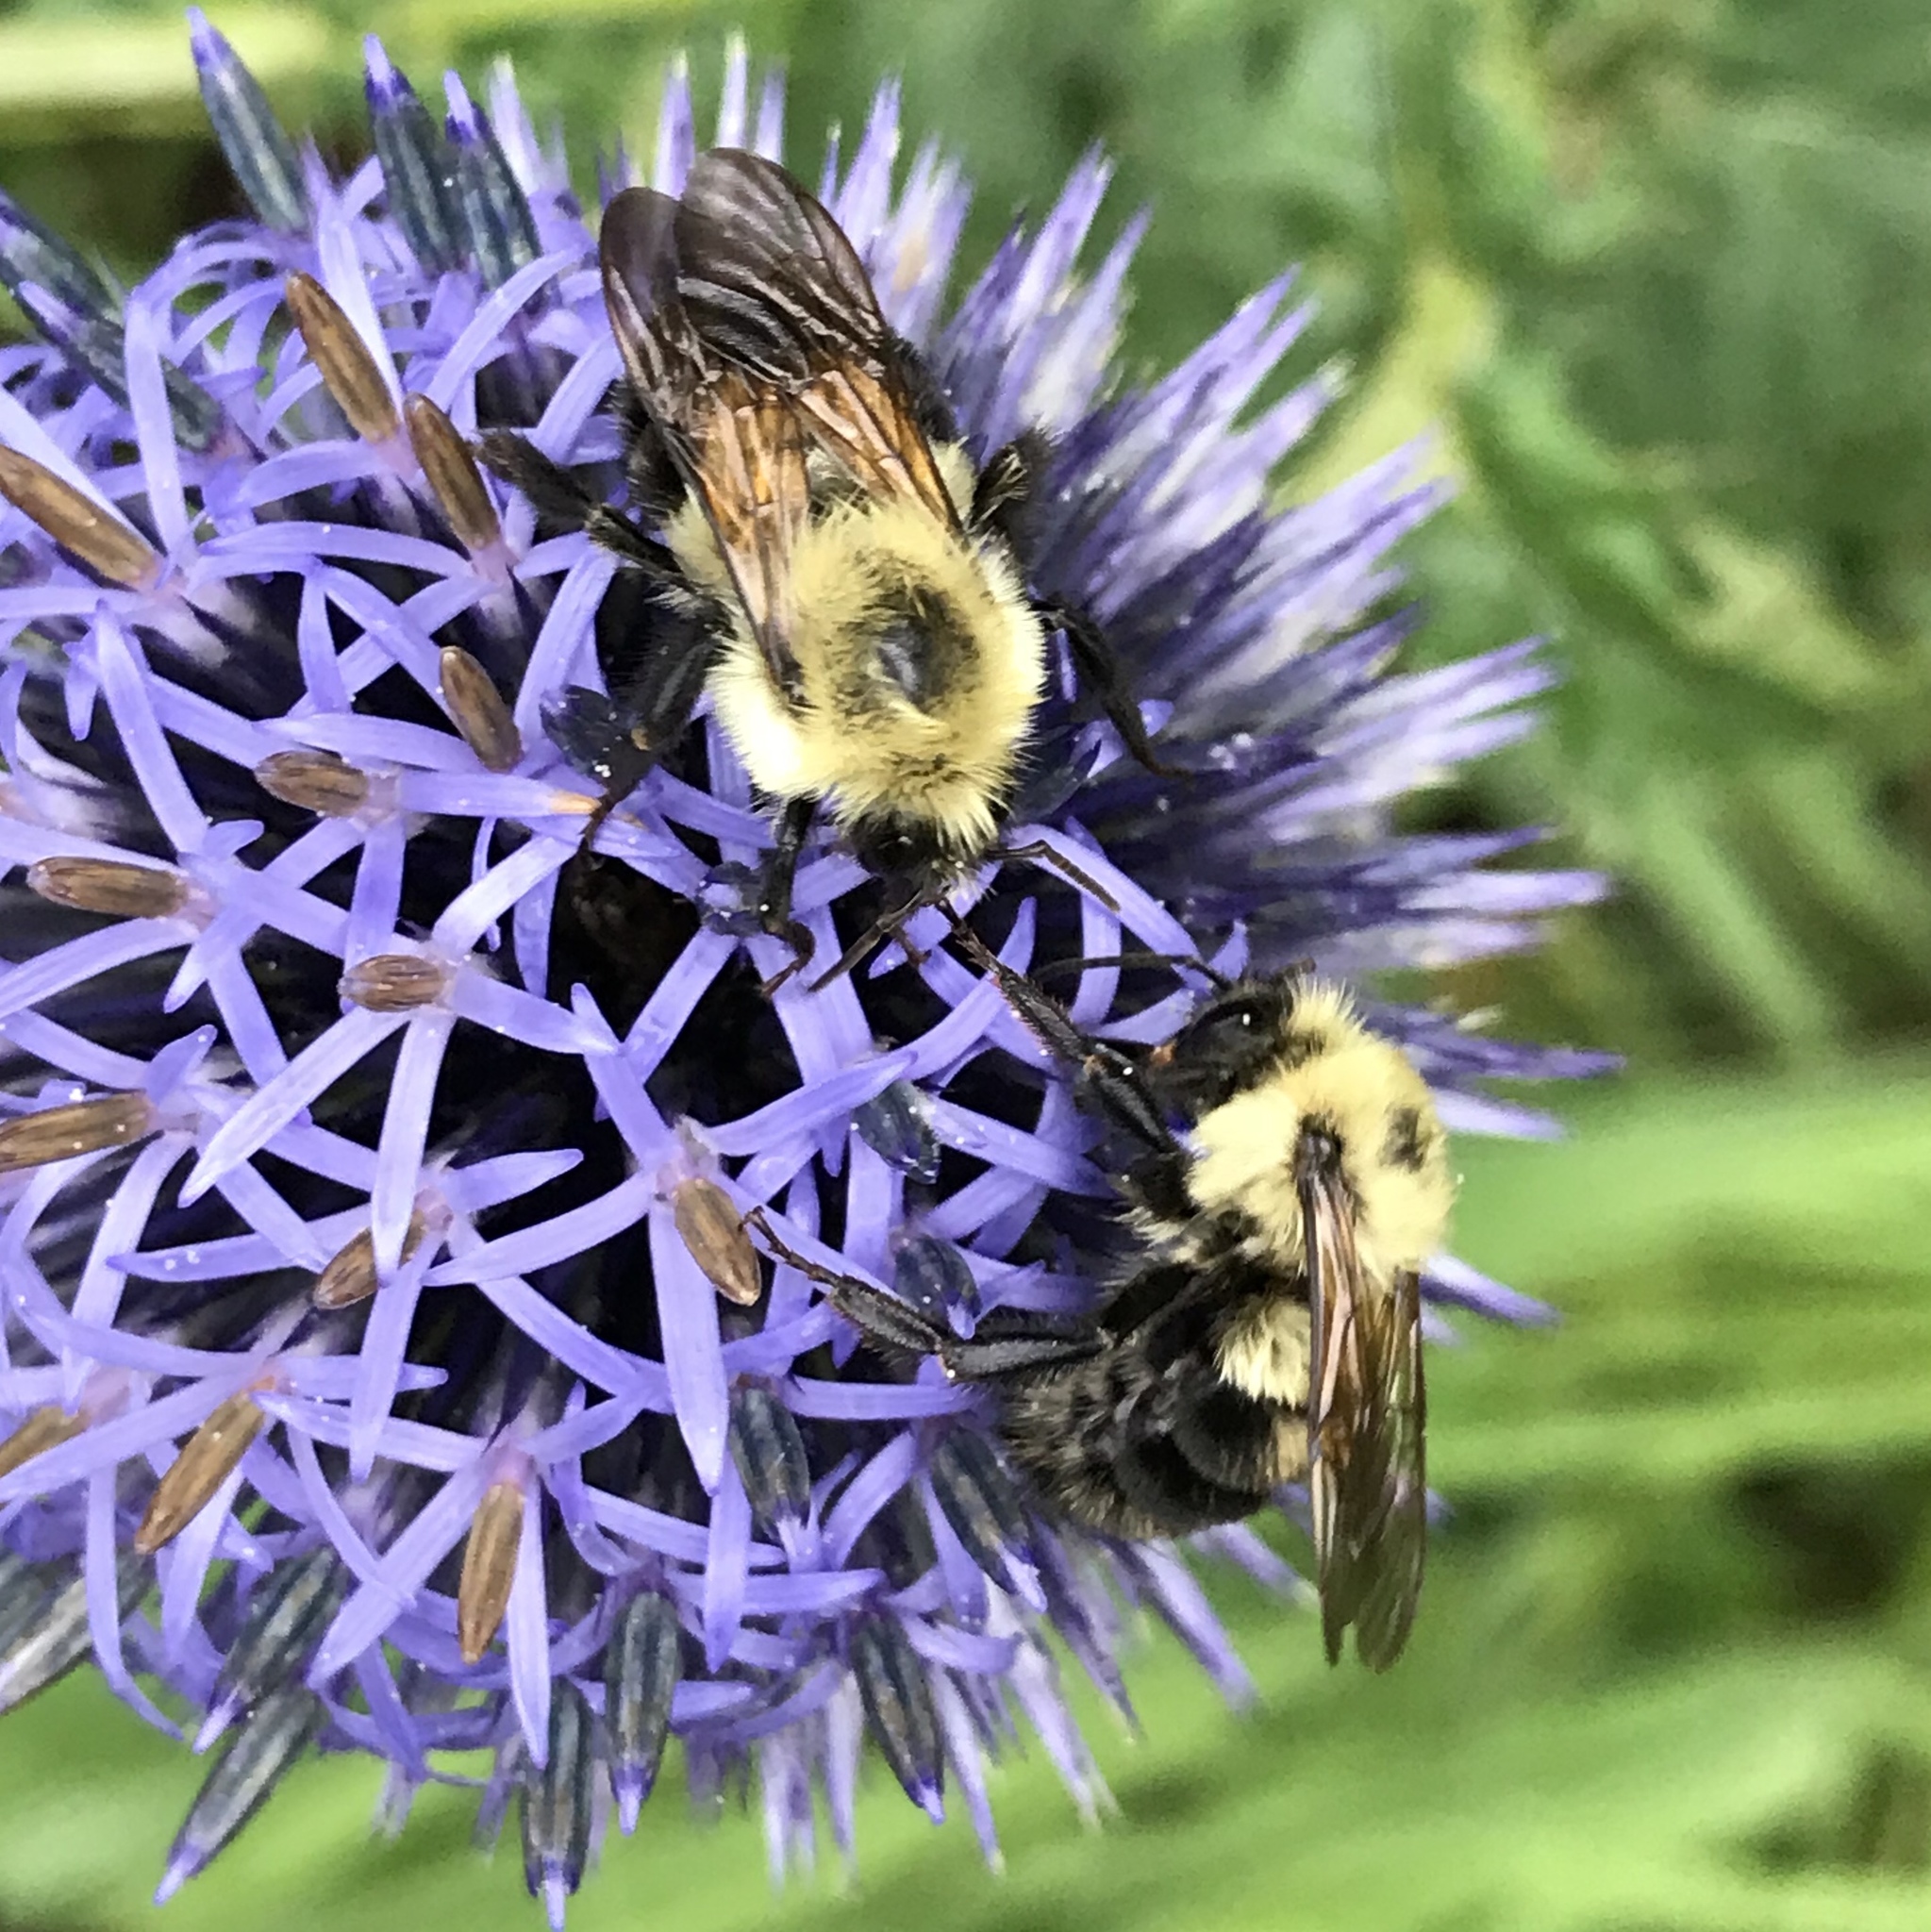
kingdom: Animalia
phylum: Arthropoda
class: Insecta
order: Hymenoptera
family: Apidae
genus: Bombus
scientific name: Bombus bimaculatus
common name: Two-spotted bumble bee
